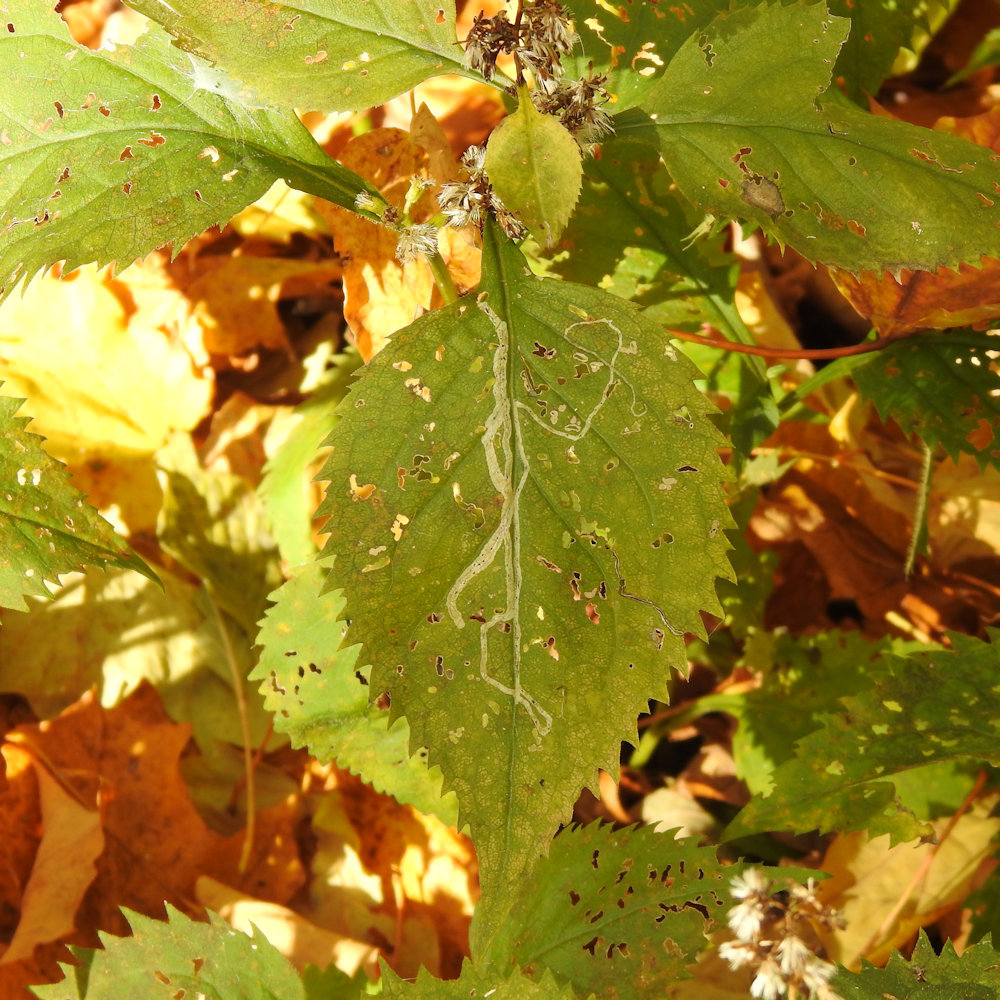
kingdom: Animalia
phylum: Arthropoda
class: Insecta
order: Diptera
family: Agromyzidae
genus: Ophiomyia
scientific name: Ophiomyia maura
